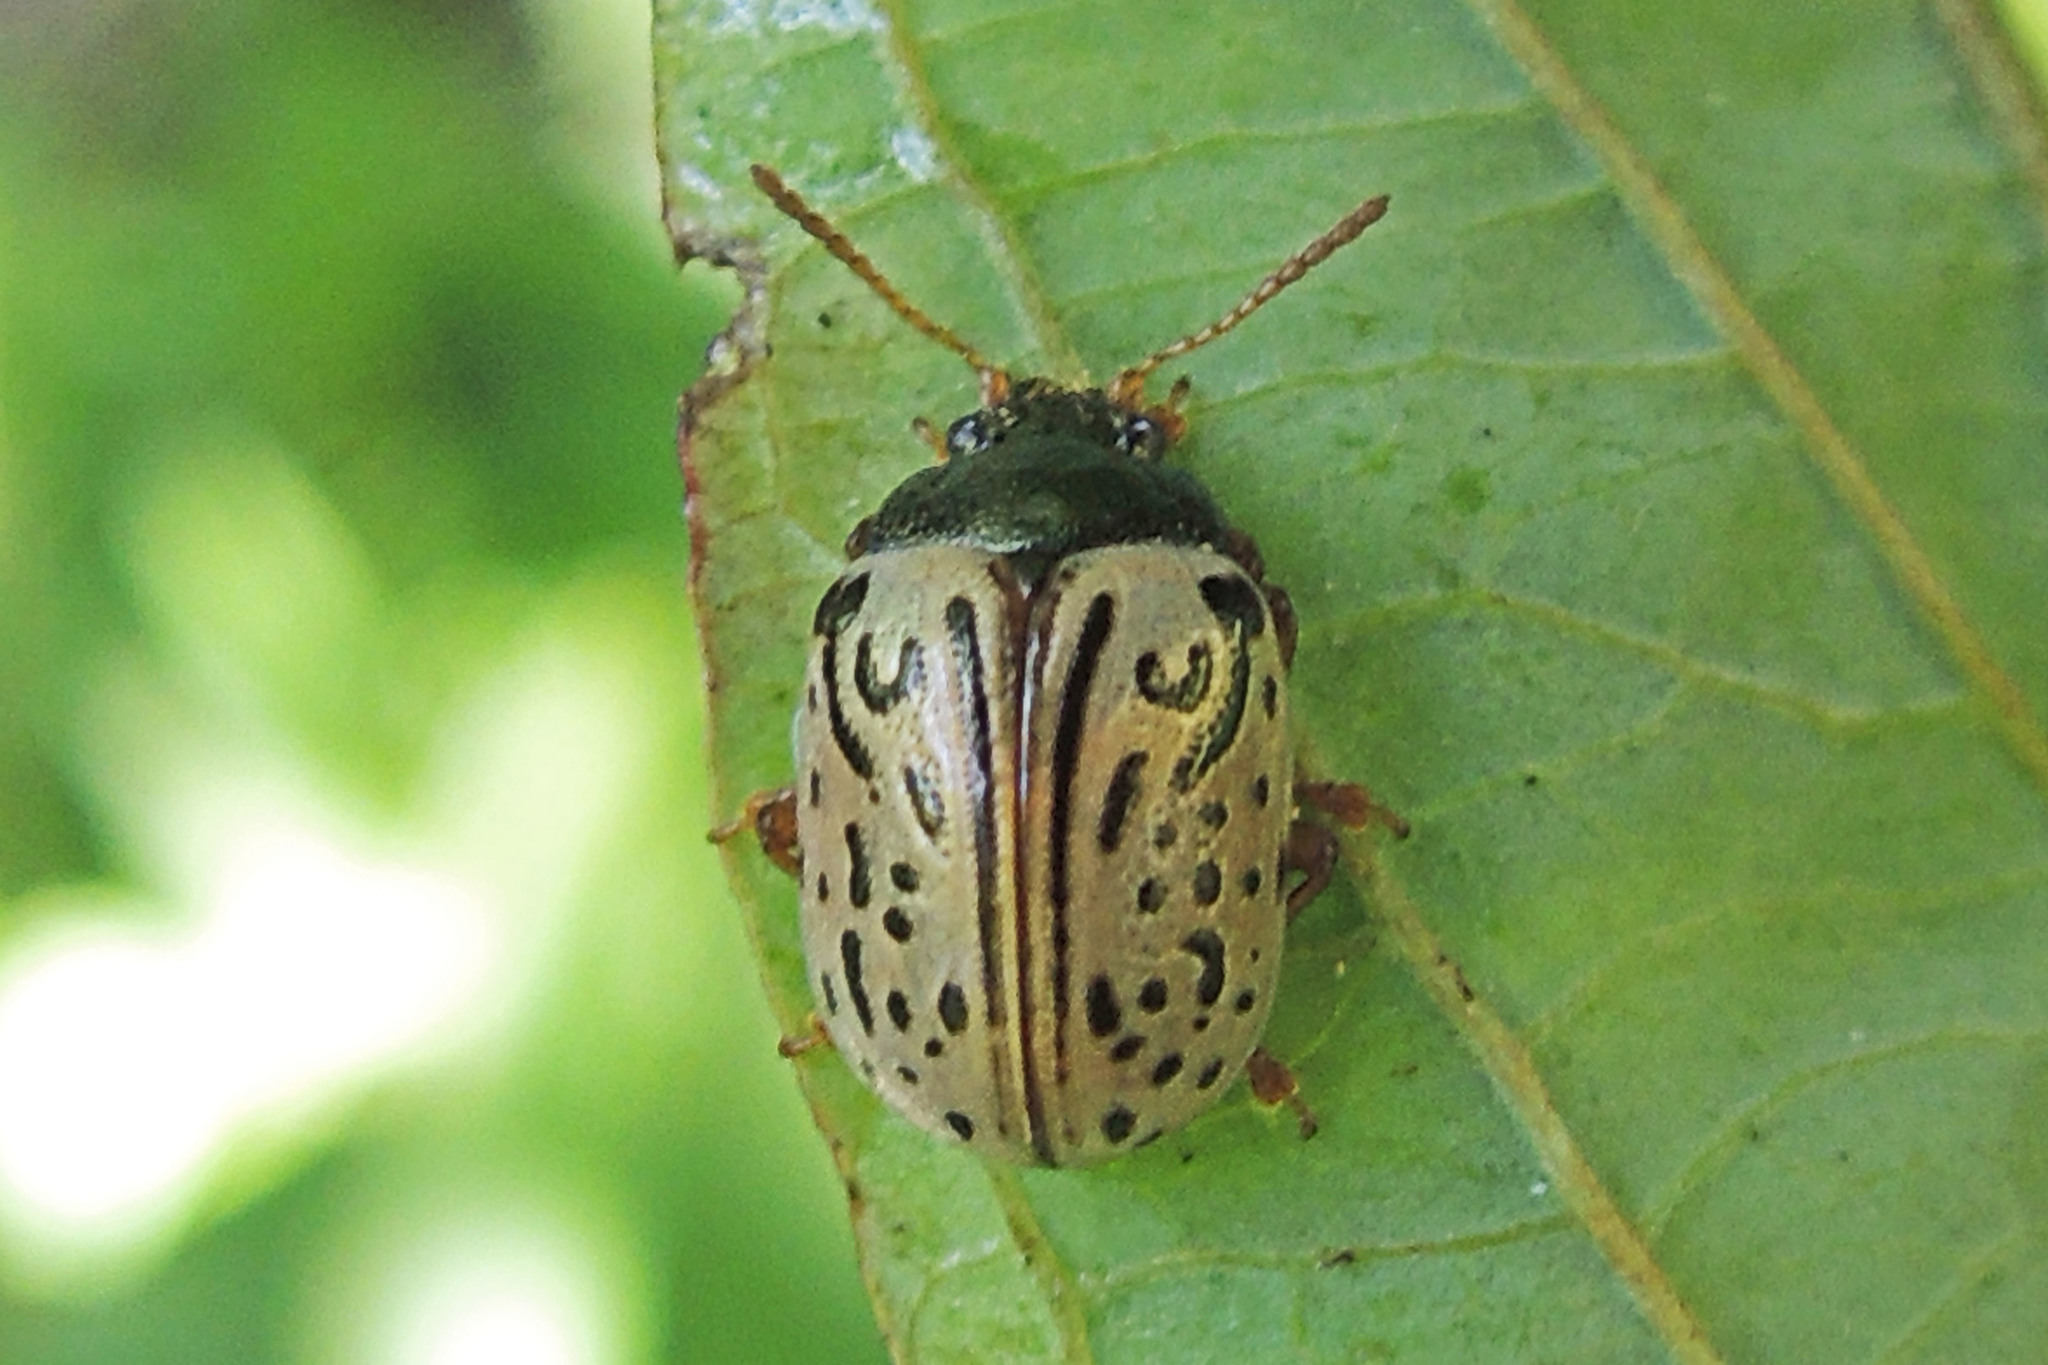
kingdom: Animalia
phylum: Arthropoda
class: Insecta
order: Coleoptera
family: Chrysomelidae
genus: Calligrapha
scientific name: Calligrapha philadelphica
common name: Dogwood leaf beetle
